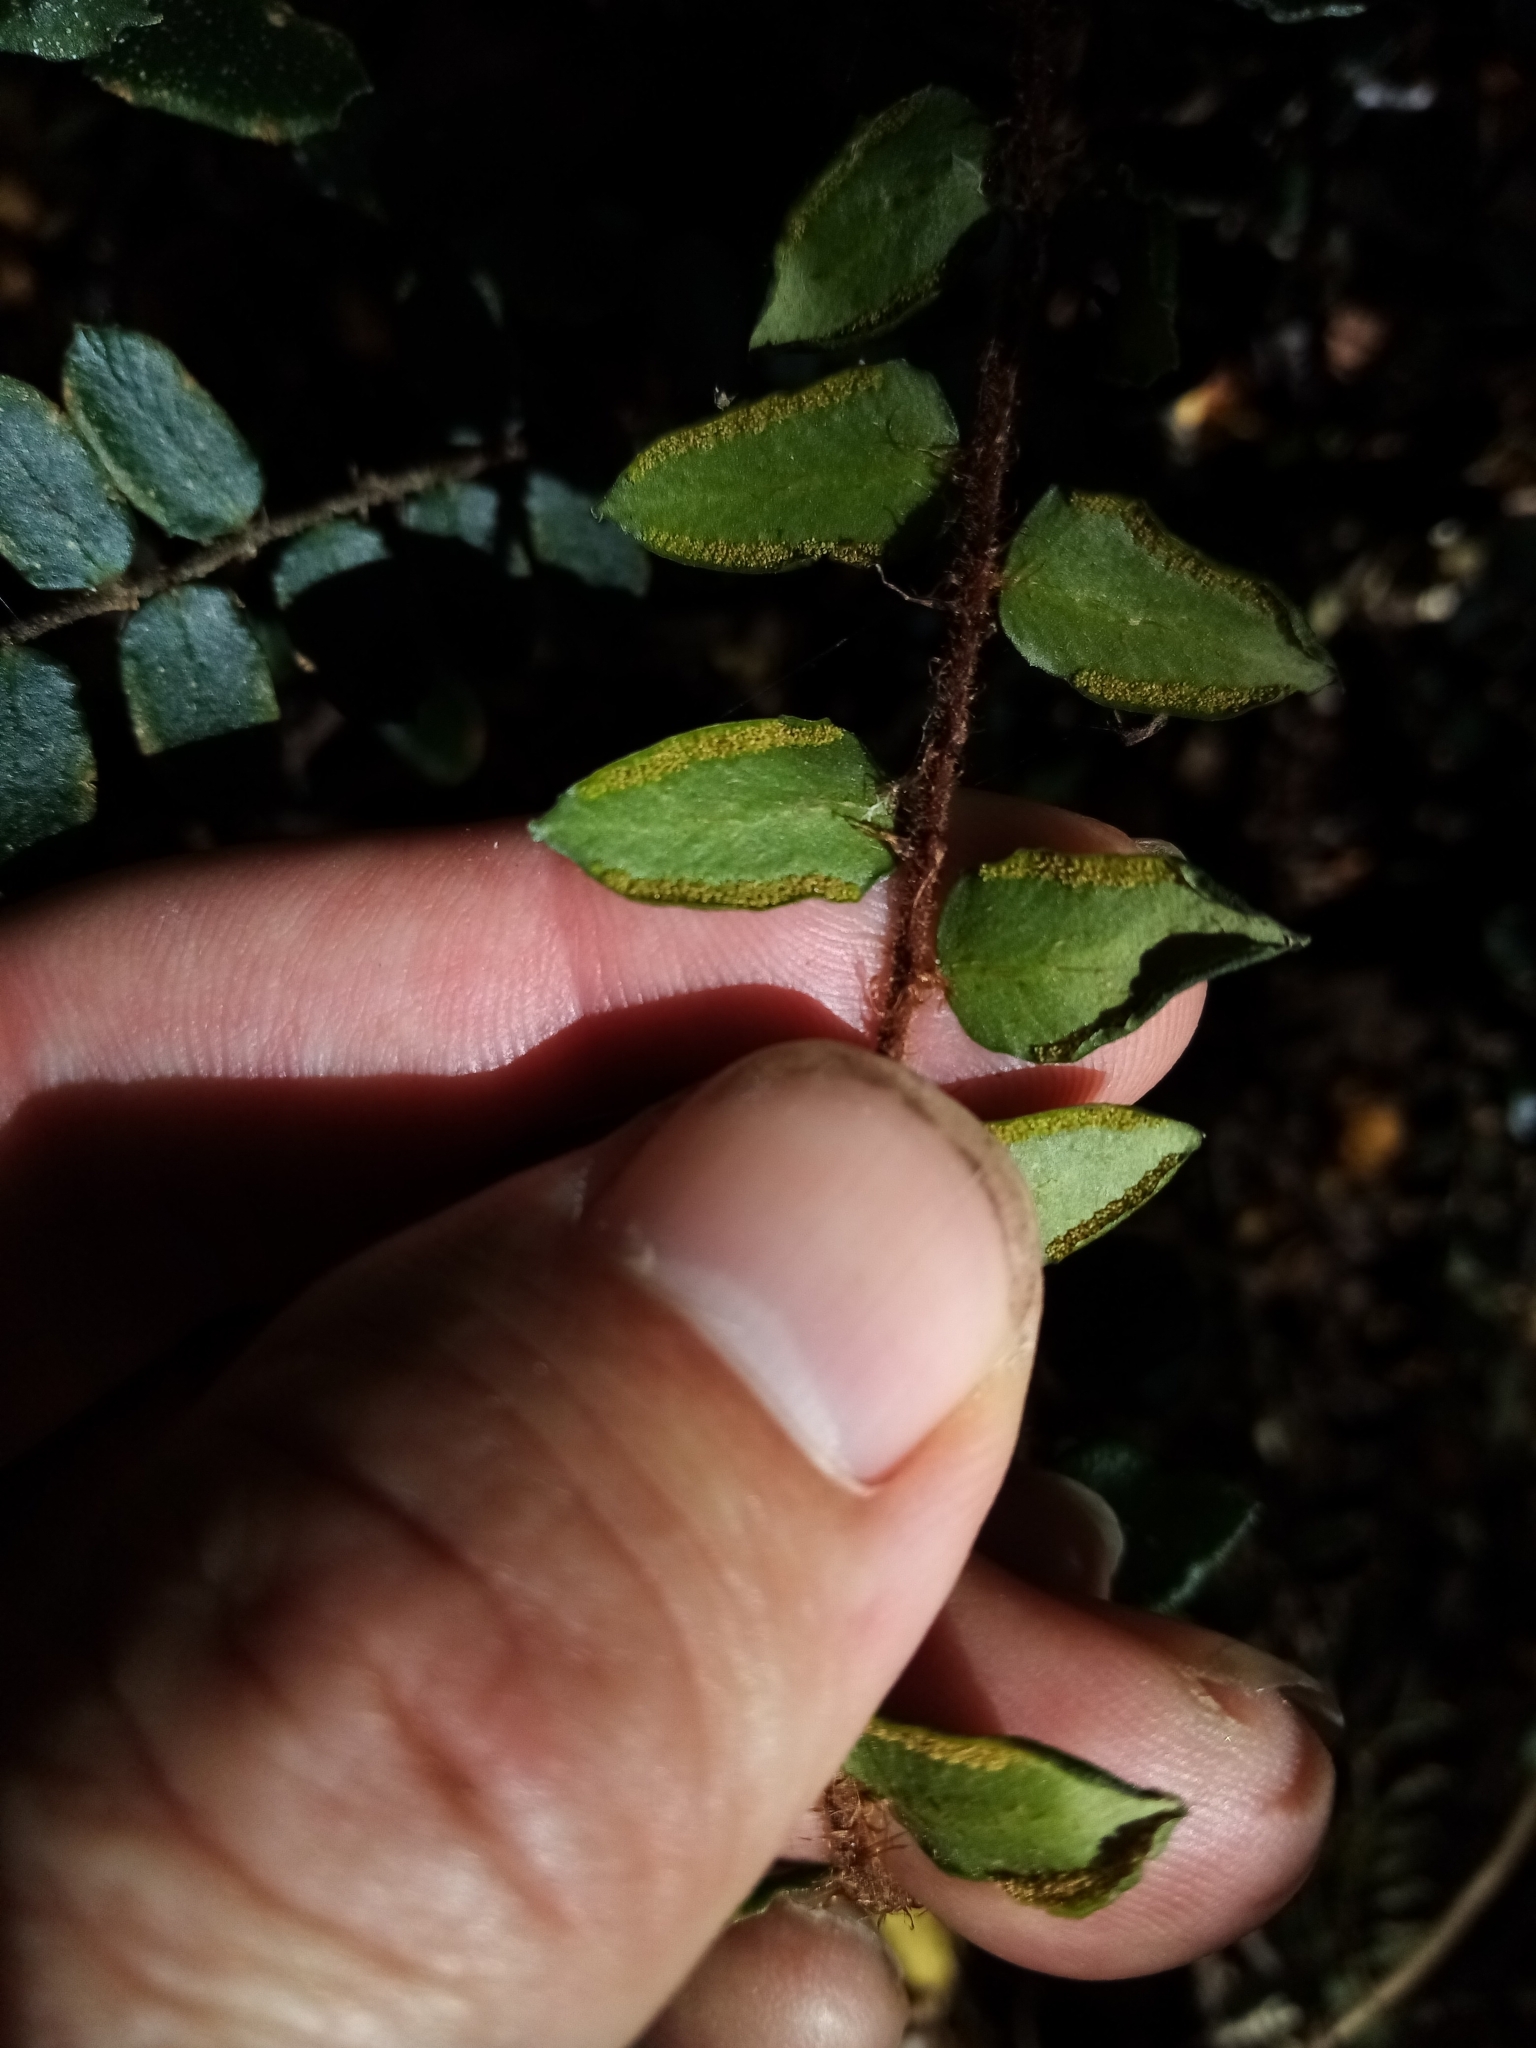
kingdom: Plantae
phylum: Tracheophyta
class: Polypodiopsida
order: Polypodiales
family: Pteridaceae
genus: Pellaea
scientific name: Pellaea rotundifolia
